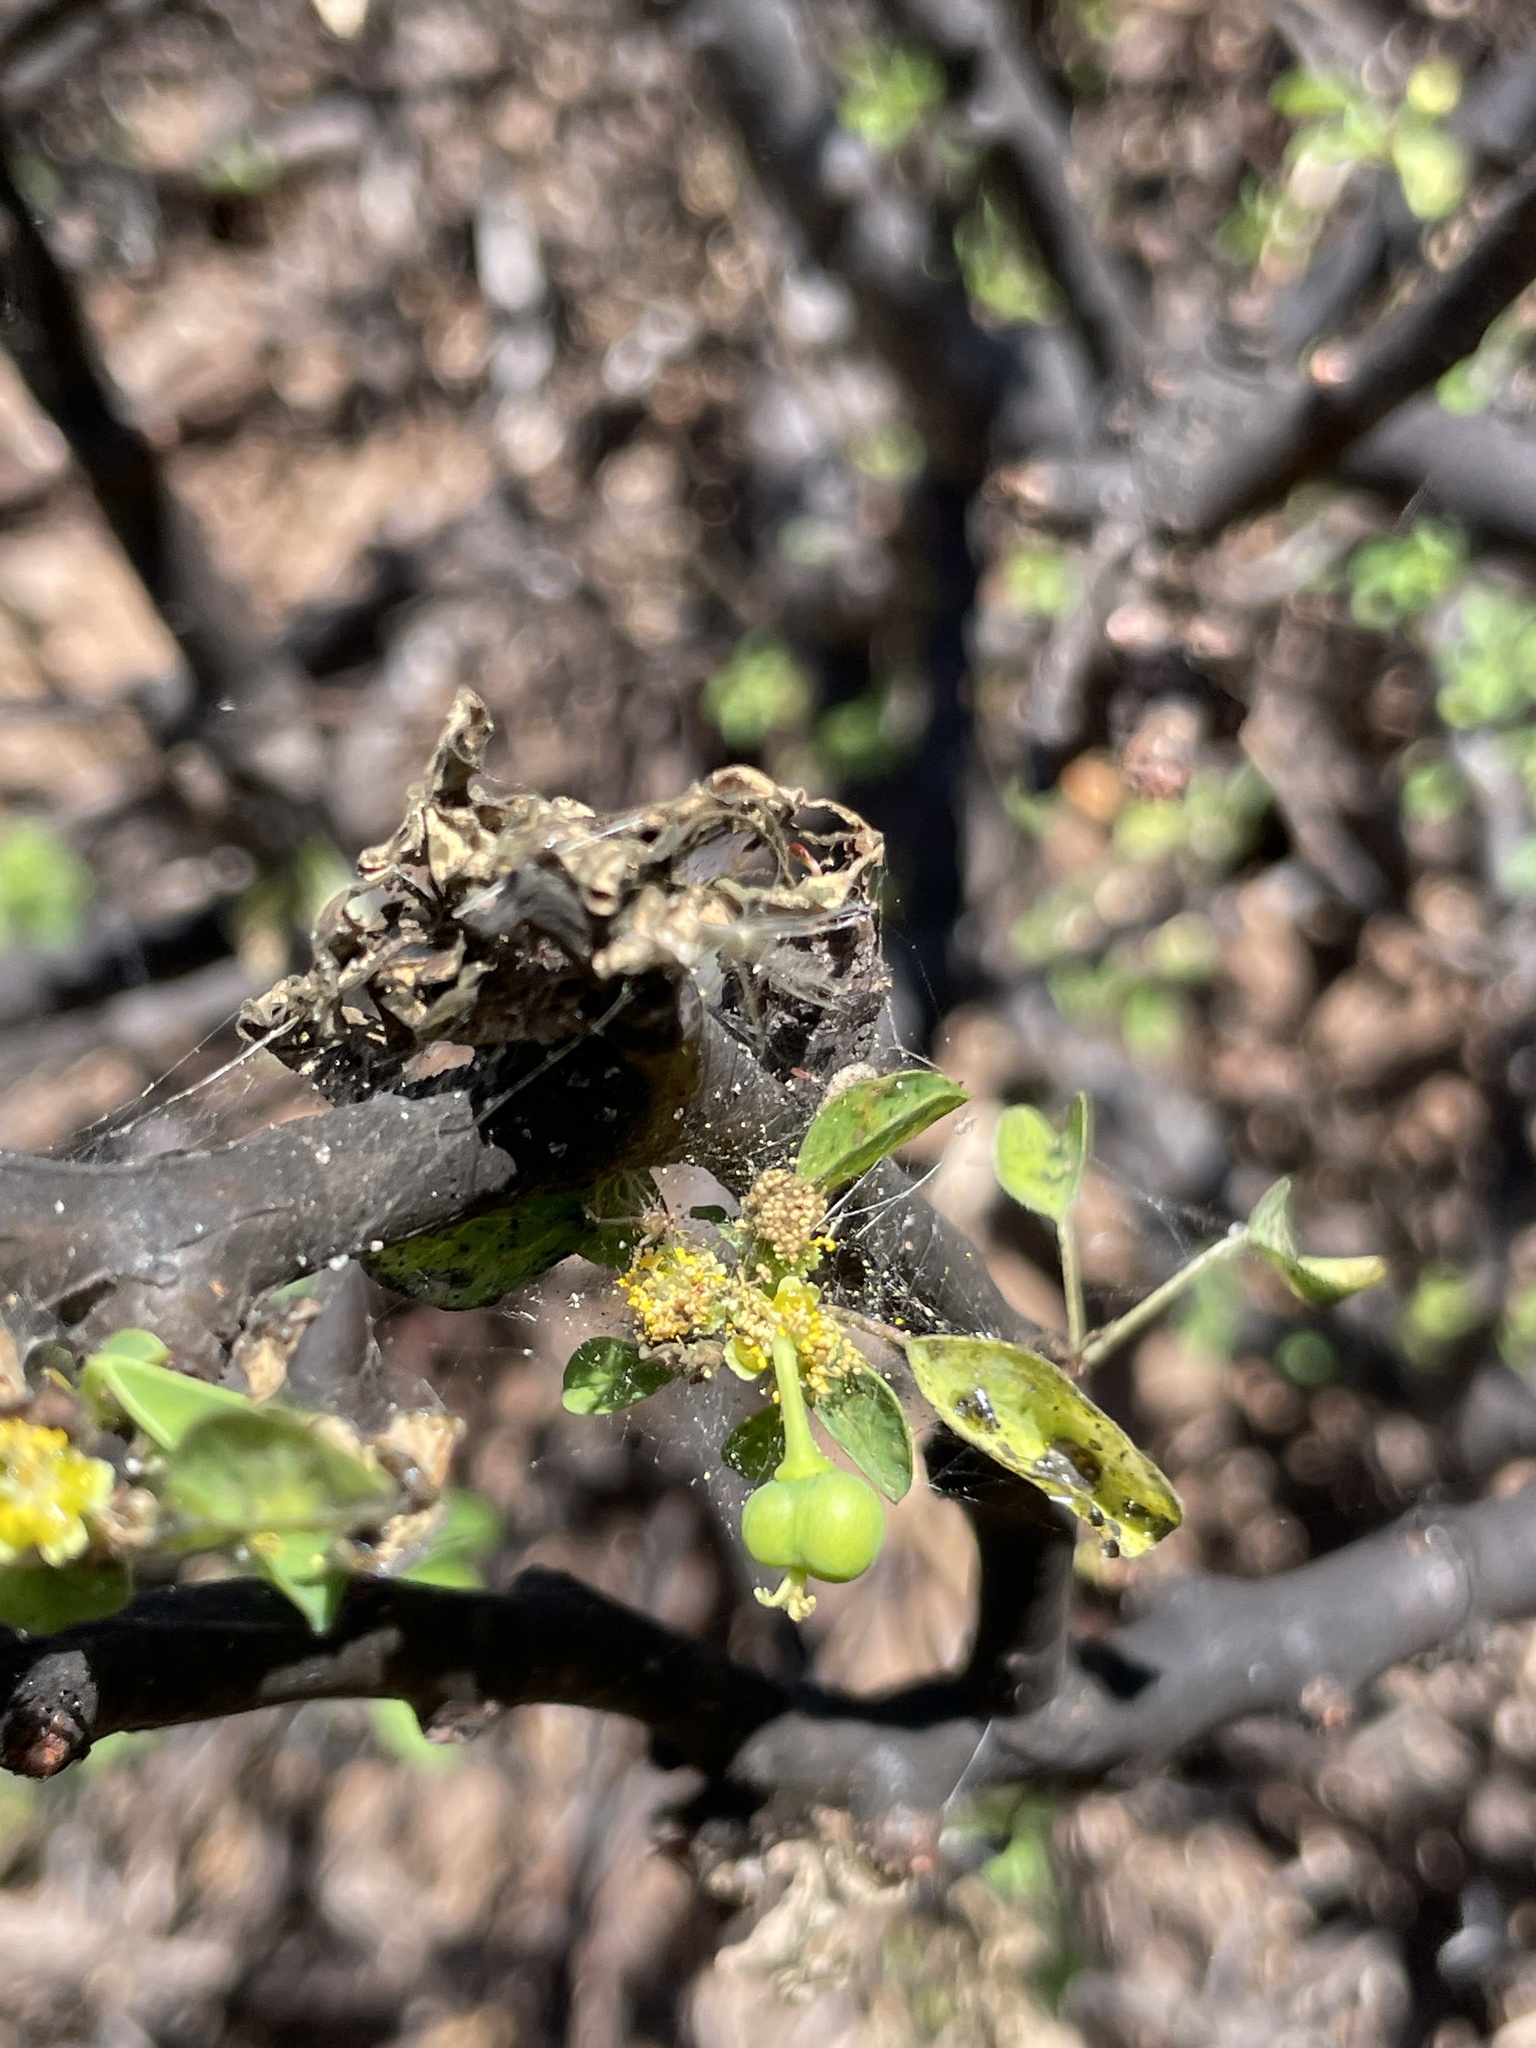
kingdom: Plantae
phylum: Tracheophyta
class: Magnoliopsida
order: Malpighiales
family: Euphorbiaceae
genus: Euphorbia
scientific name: Euphorbia californica
